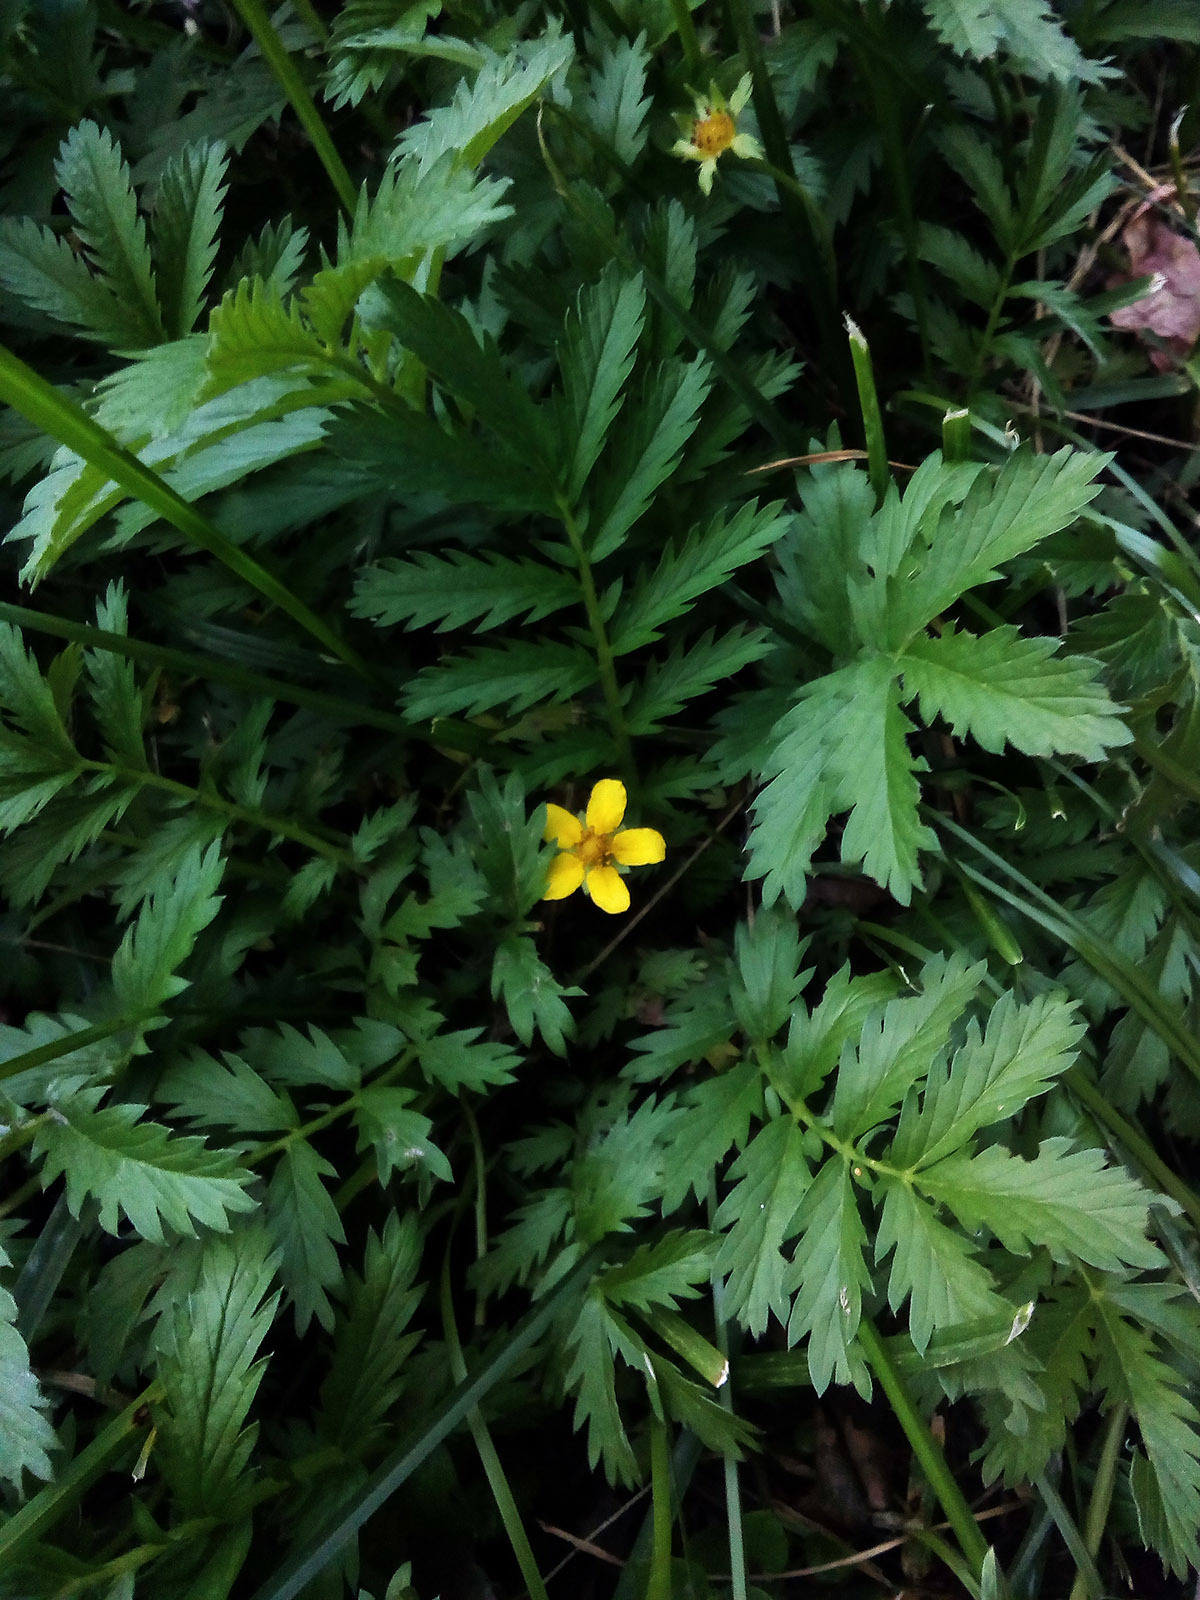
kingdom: Plantae
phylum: Tracheophyta
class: Magnoliopsida
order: Rosales
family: Rosaceae
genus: Argentina
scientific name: Argentina anserina
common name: Common silverweed
